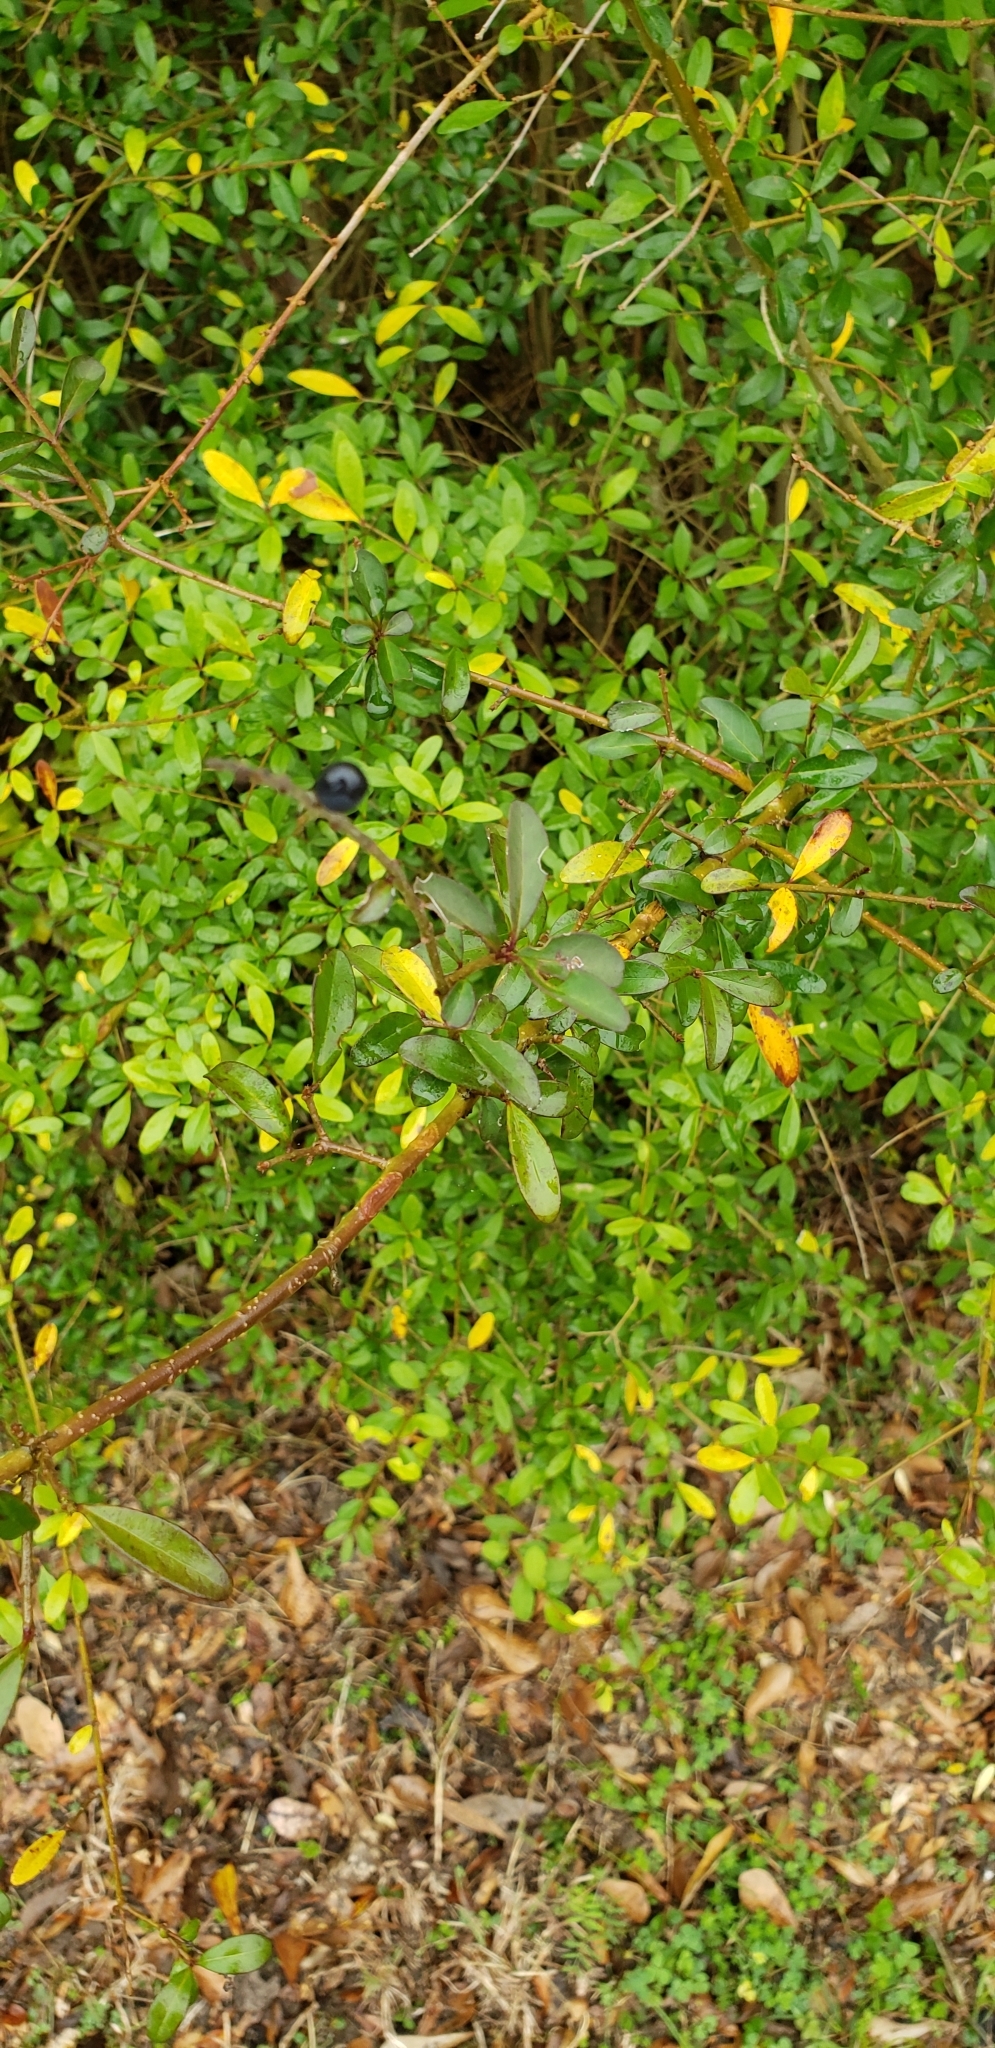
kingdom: Plantae
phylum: Tracheophyta
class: Magnoliopsida
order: Lamiales
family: Oleaceae
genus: Ligustrum
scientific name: Ligustrum quihoui
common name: Waxyleaf privet
